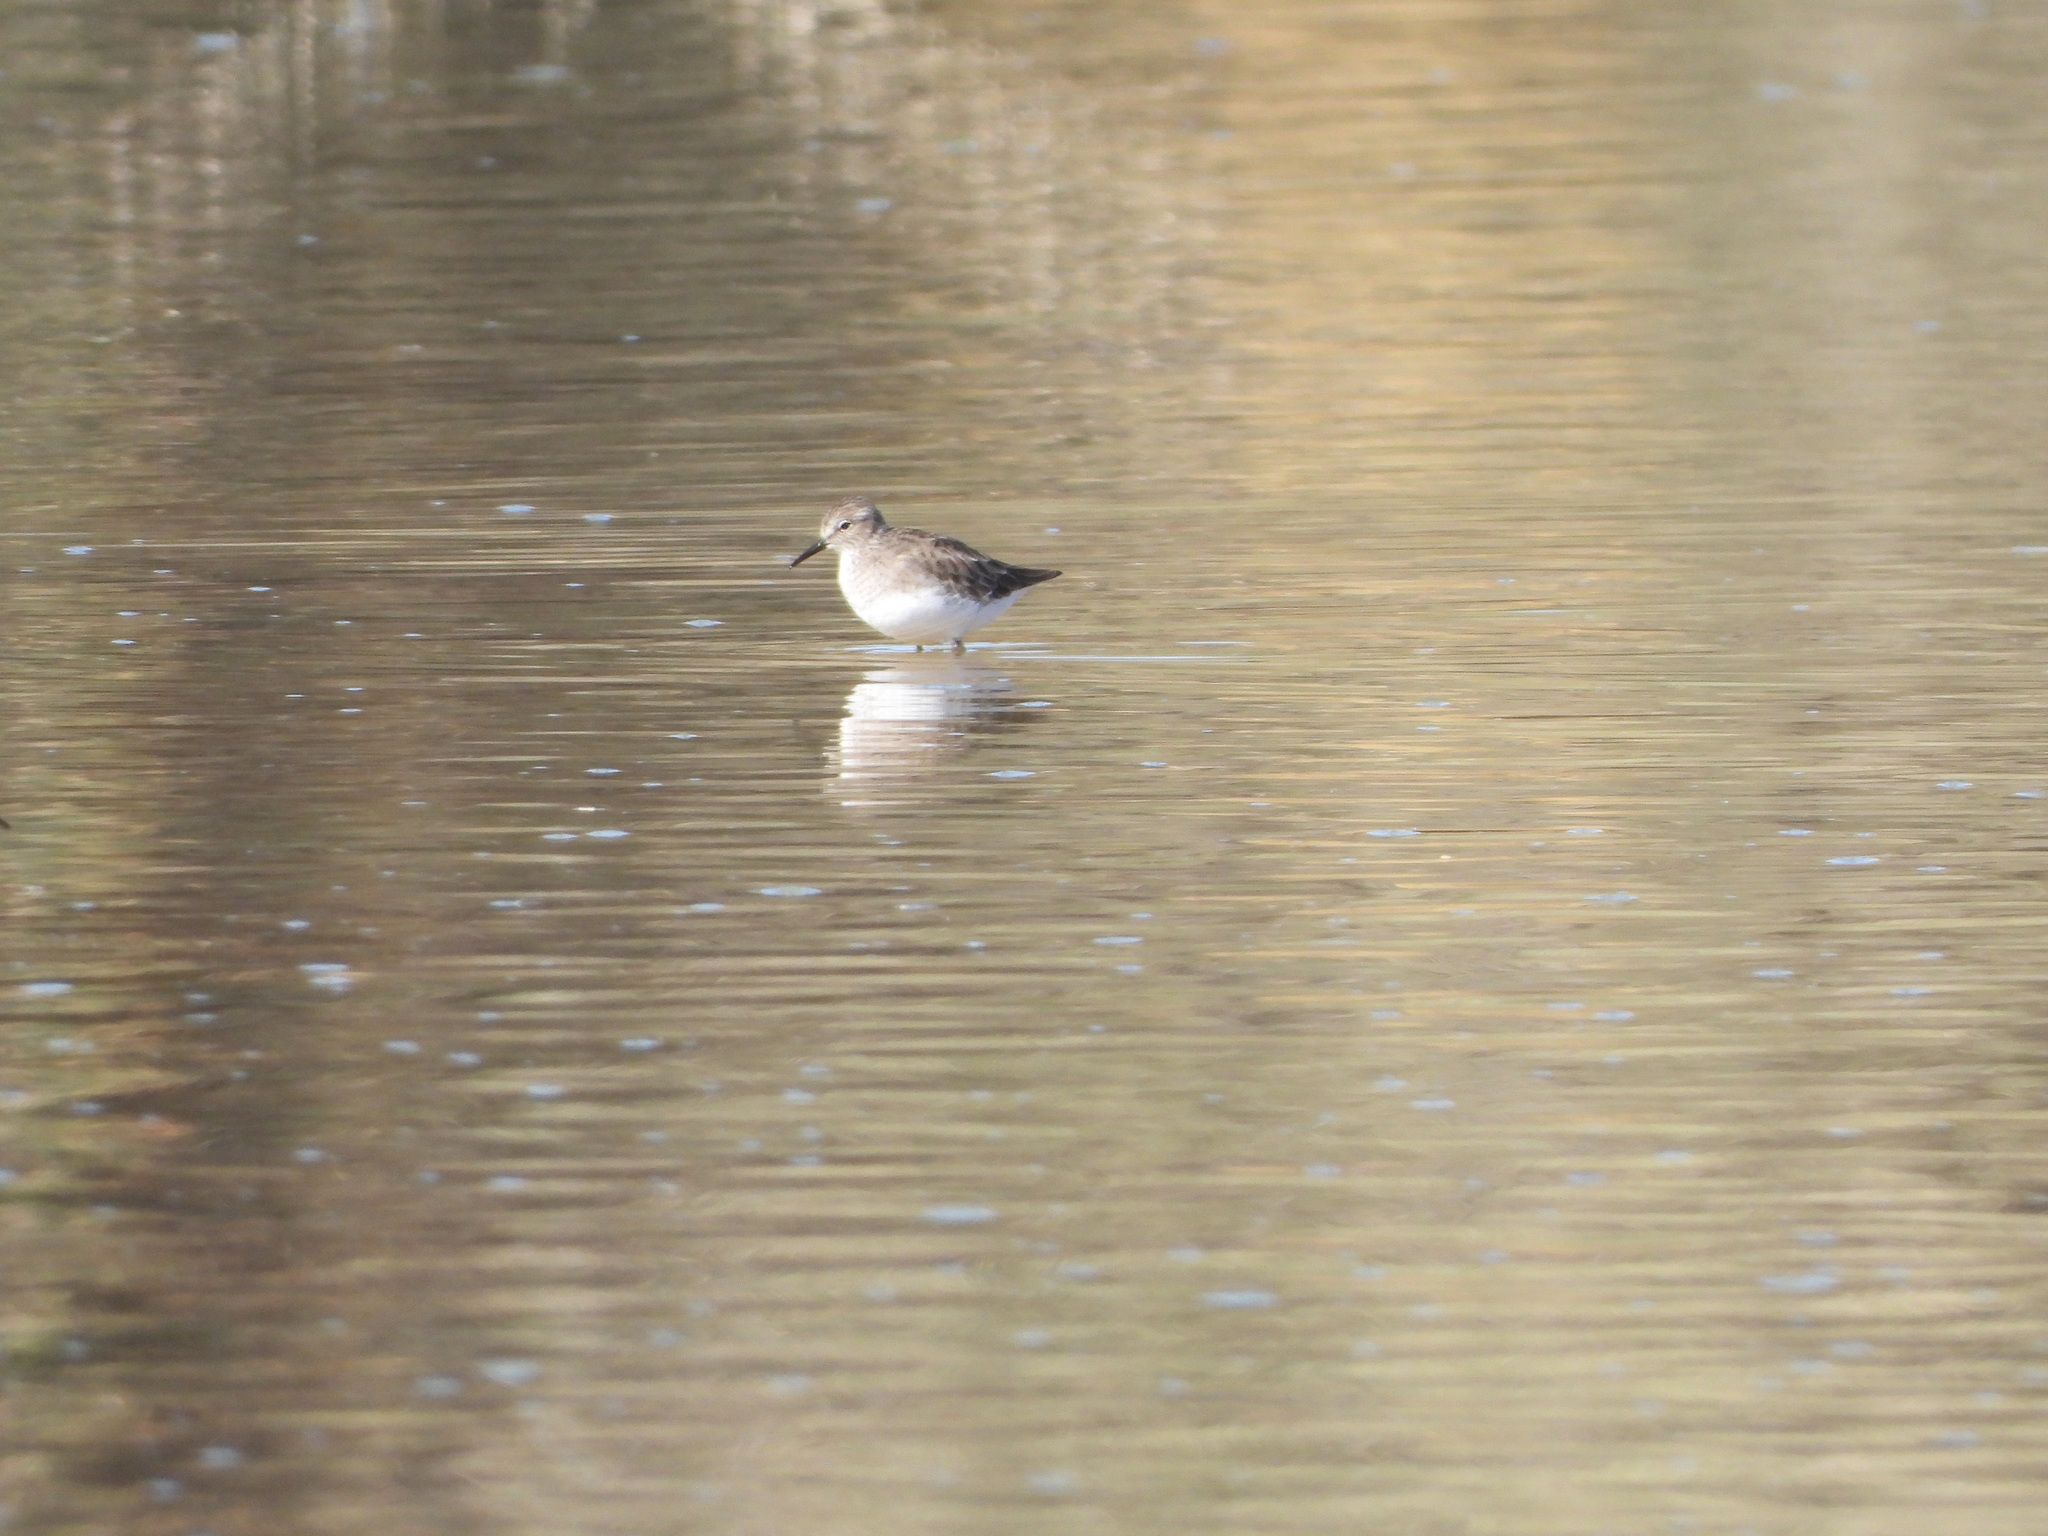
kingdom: Animalia
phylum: Chordata
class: Aves
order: Charadriiformes
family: Scolopacidae
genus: Calidris
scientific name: Calidris minutilla
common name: Least sandpiper
